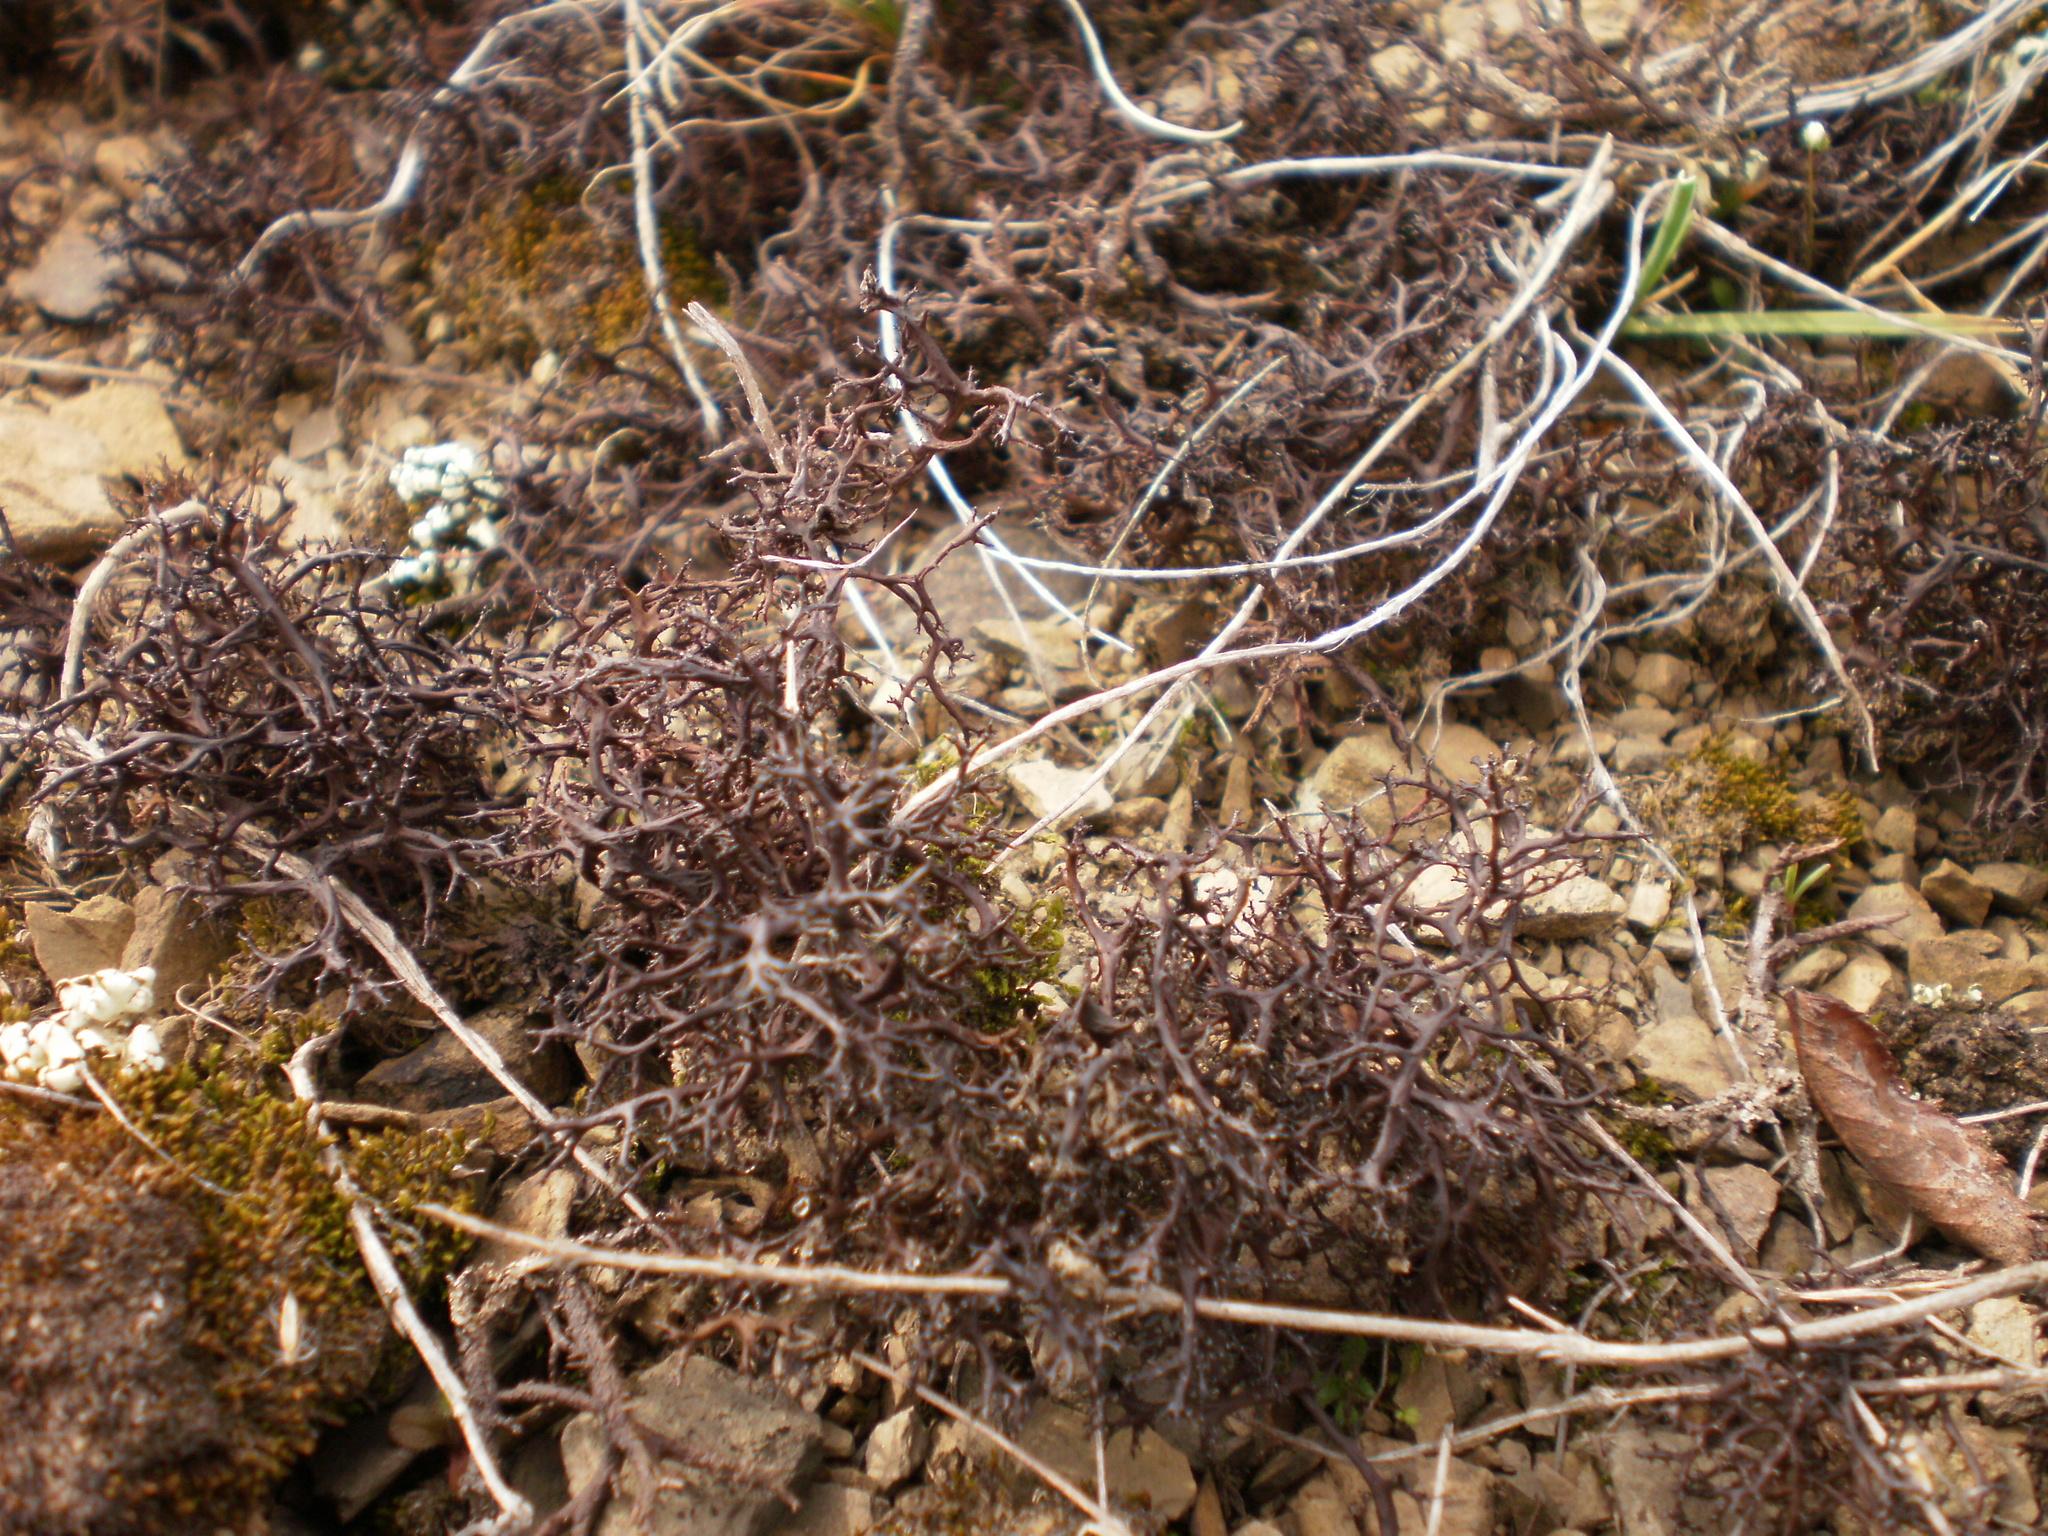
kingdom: Fungi
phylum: Ascomycota
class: Lecanoromycetes
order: Lecanorales
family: Parmeliaceae
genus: Cetraria
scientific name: Cetraria aculeata
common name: Spiny heath lichen
